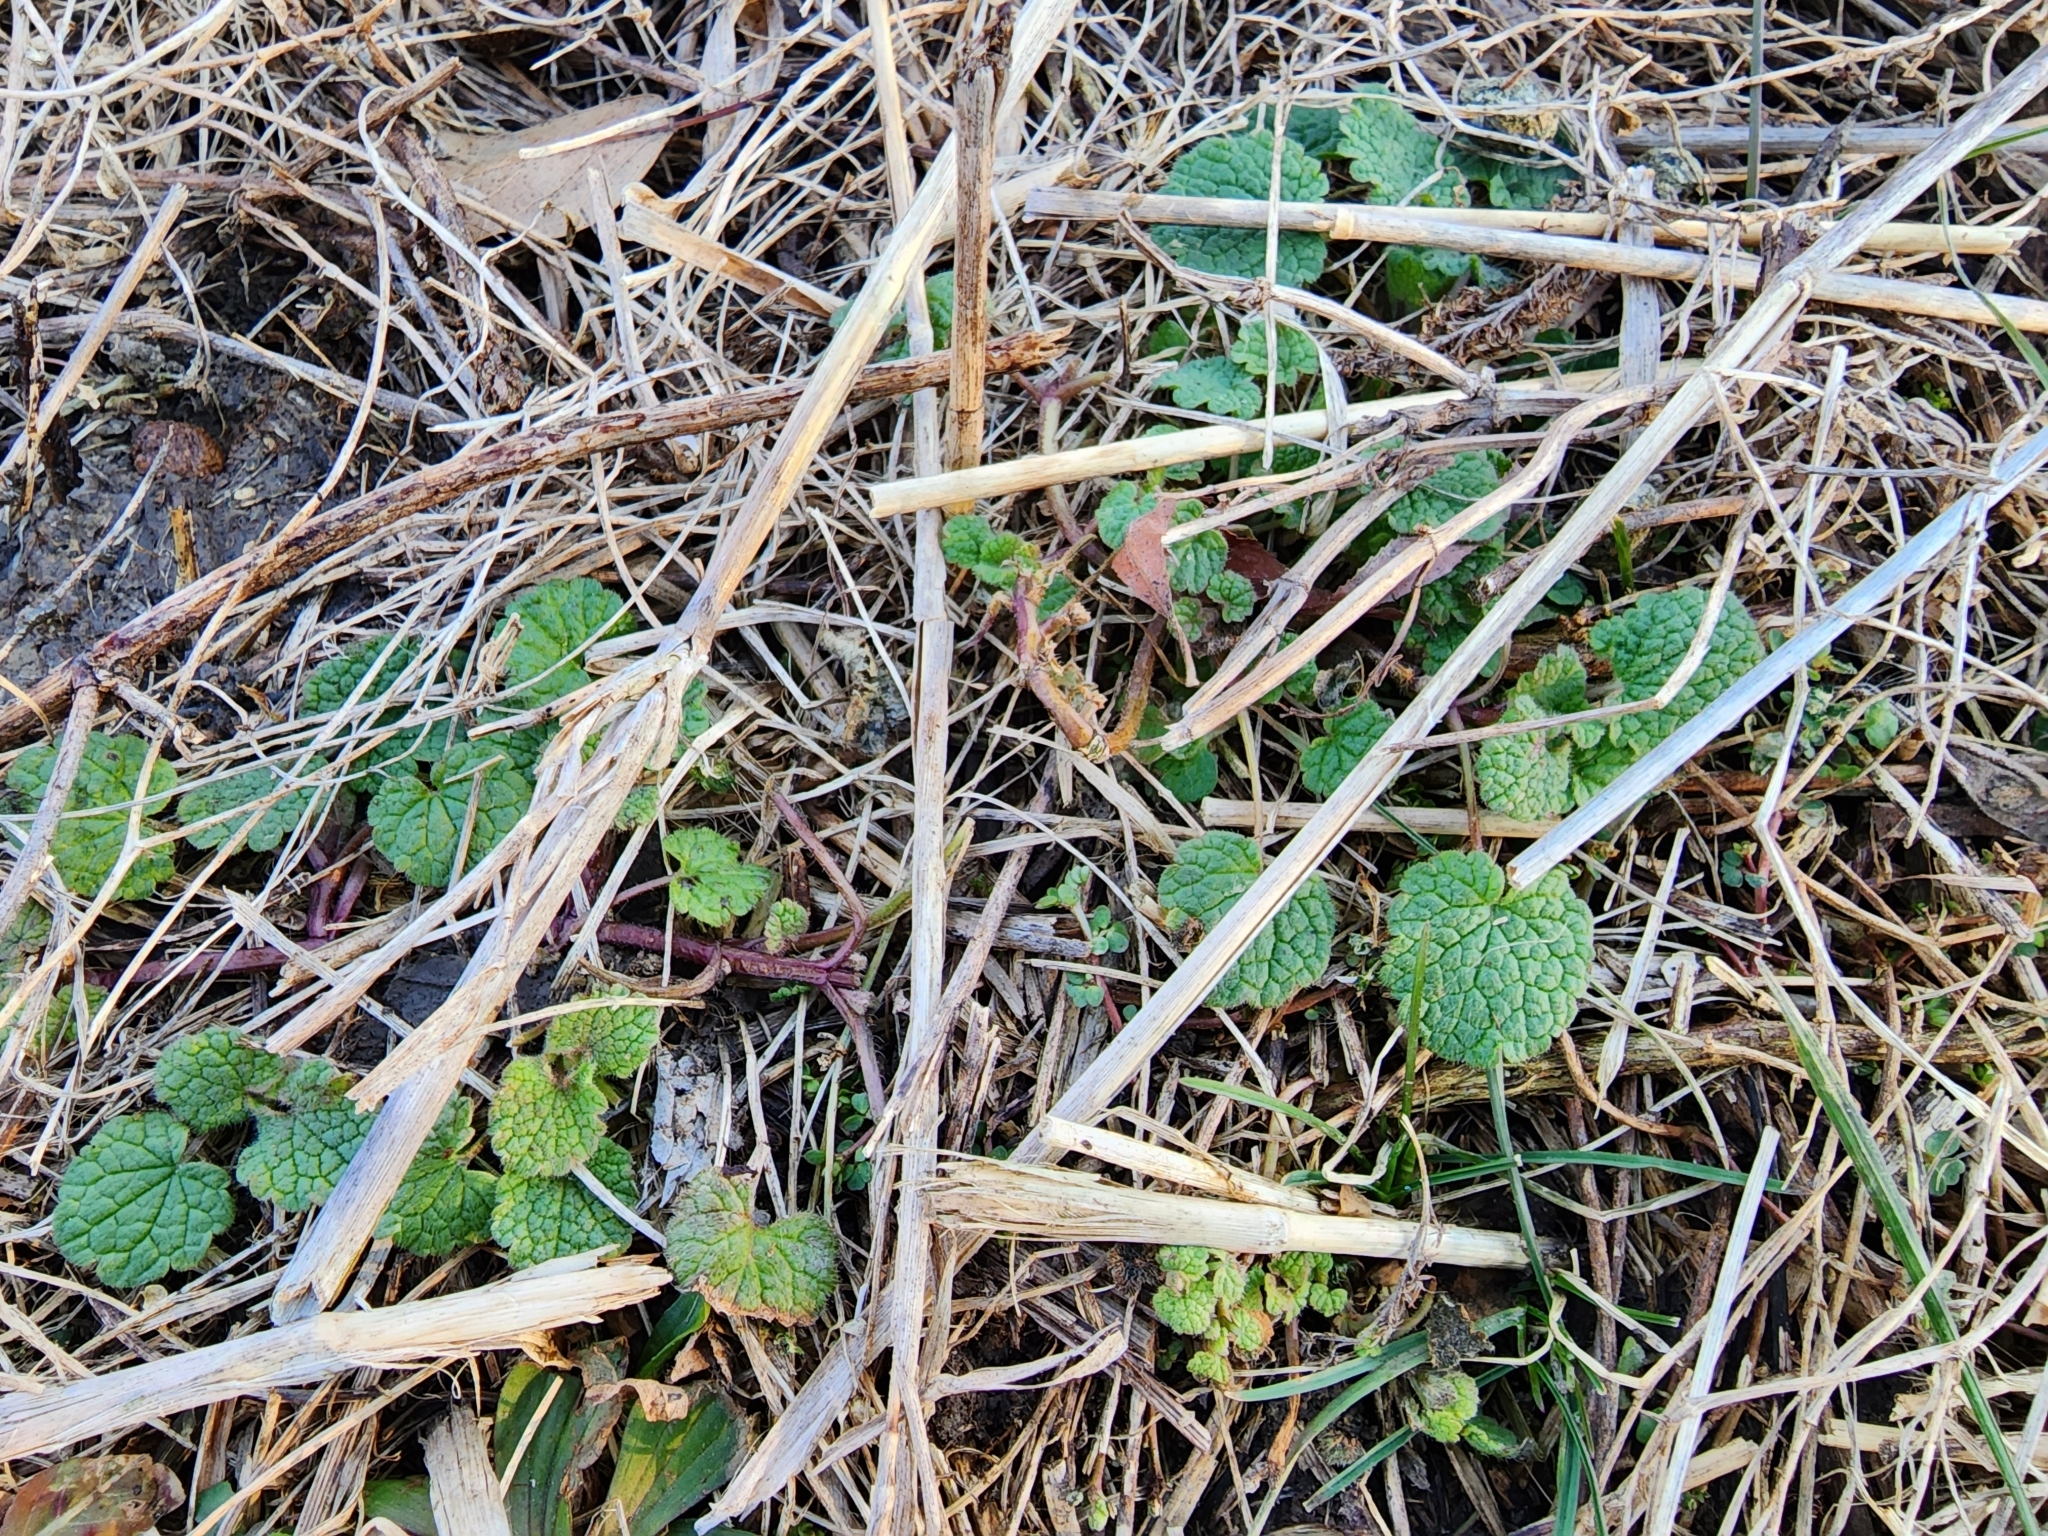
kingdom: Plantae
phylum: Tracheophyta
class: Magnoliopsida
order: Lamiales
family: Lamiaceae
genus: Lamium
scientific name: Lamium purpureum
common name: Red dead-nettle
